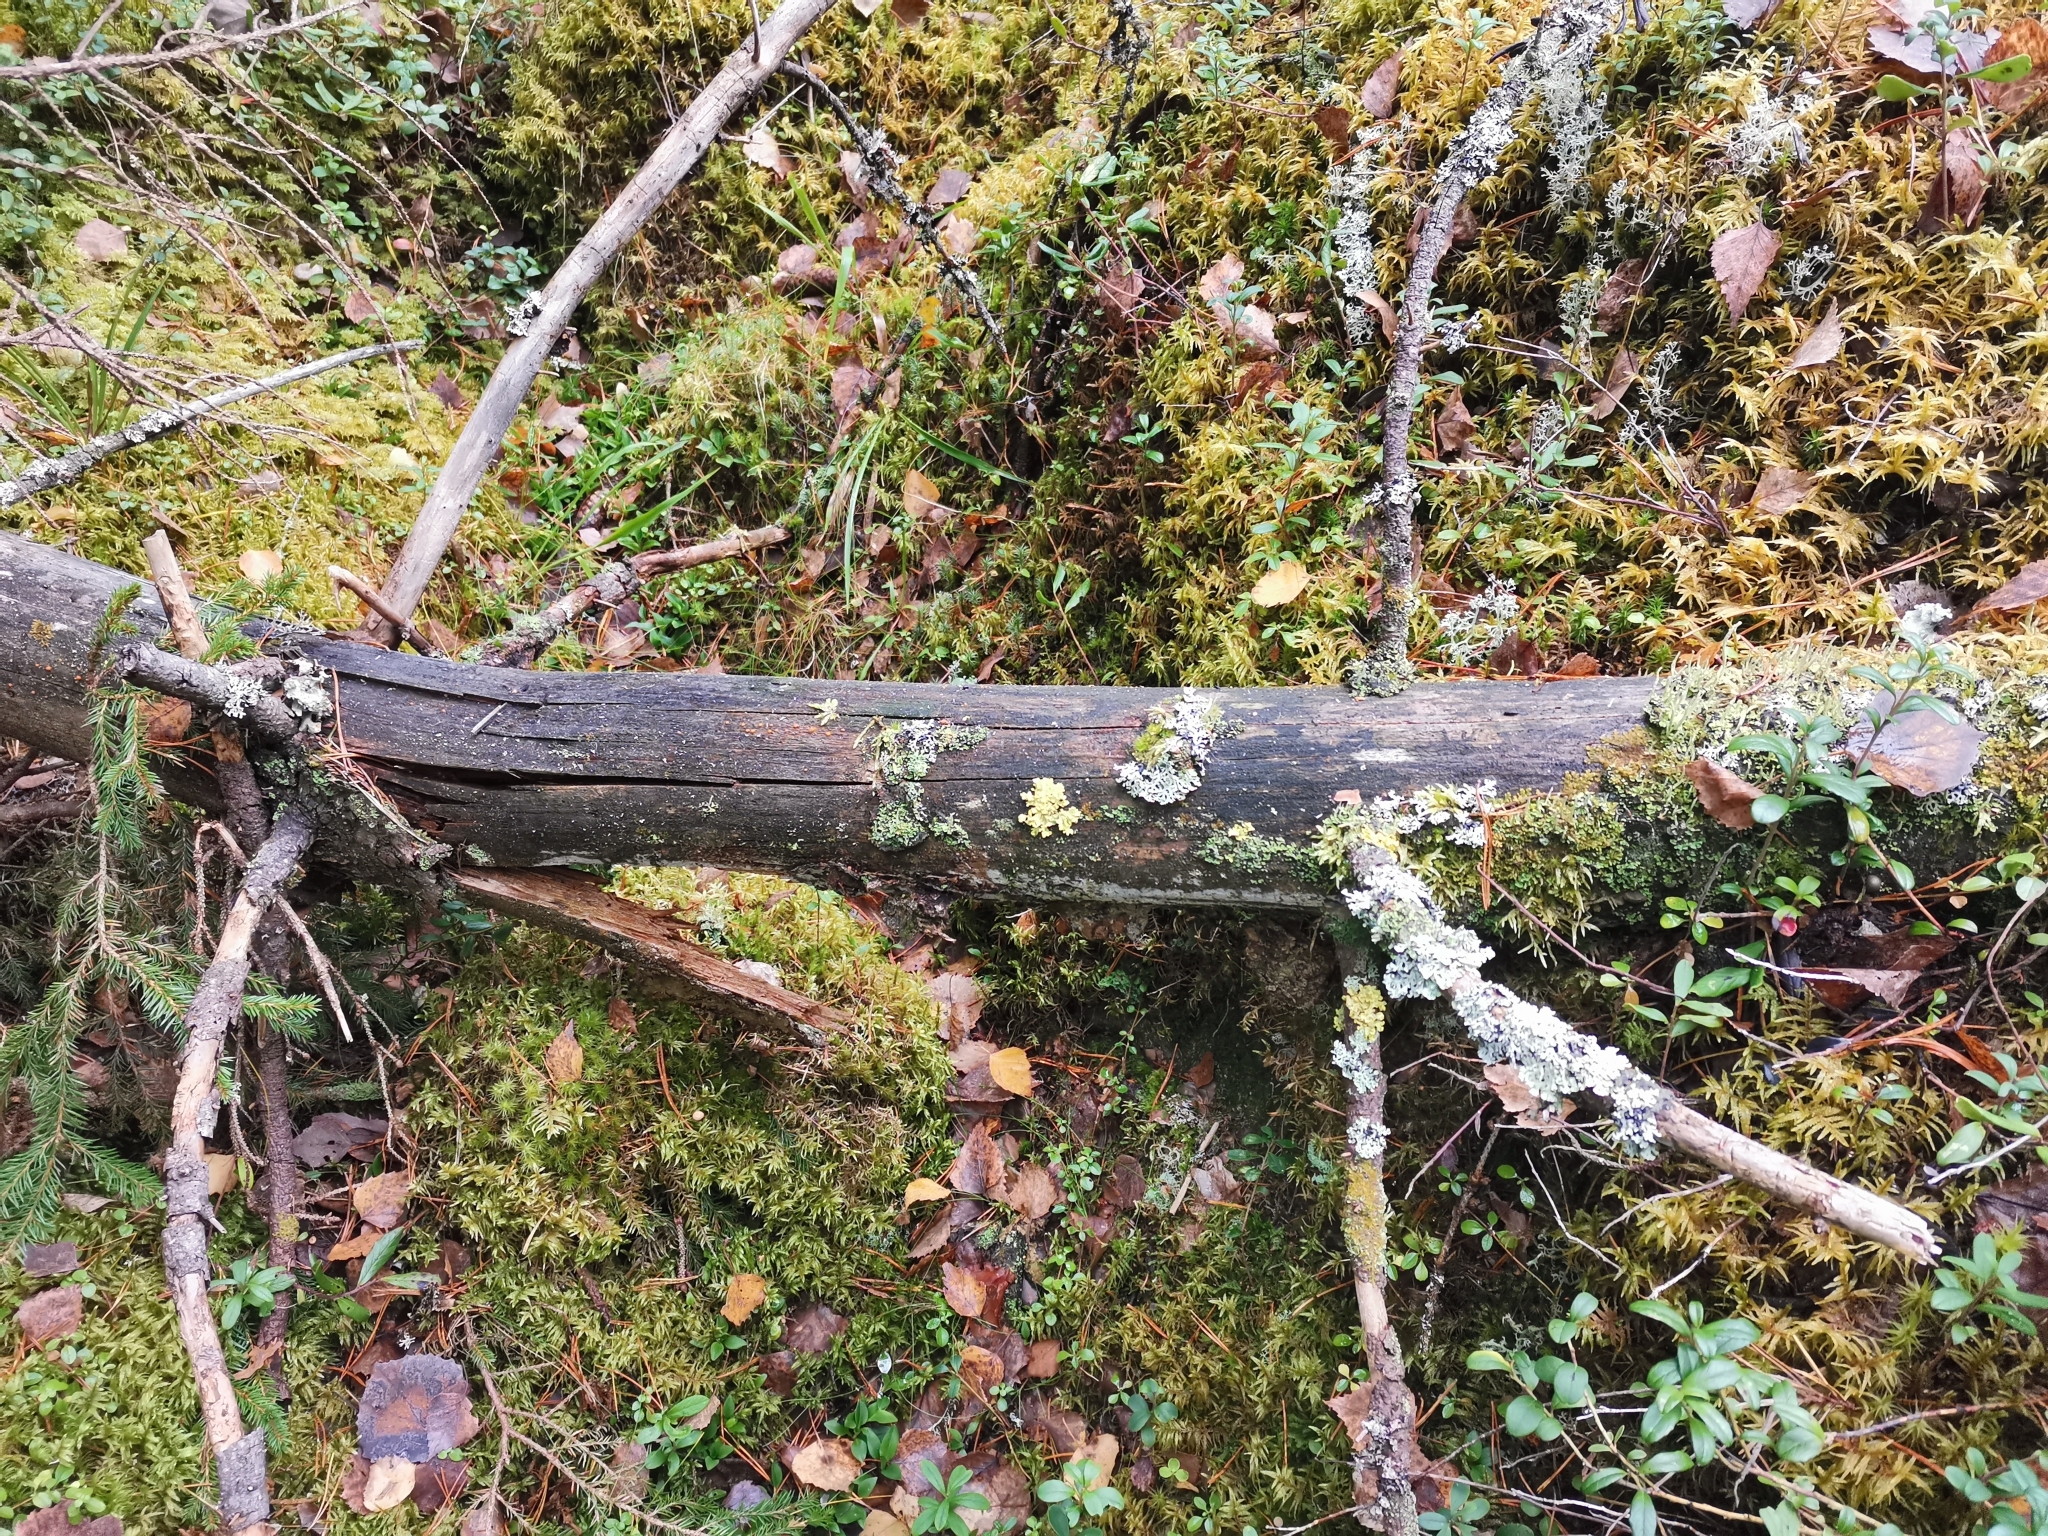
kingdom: Fungi
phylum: Ascomycota
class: Lecanoromycetes
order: Lecanorales
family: Parmeliaceae
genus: Vulpicida
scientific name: Vulpicida pinastri
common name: Powdered sunshine lichen
